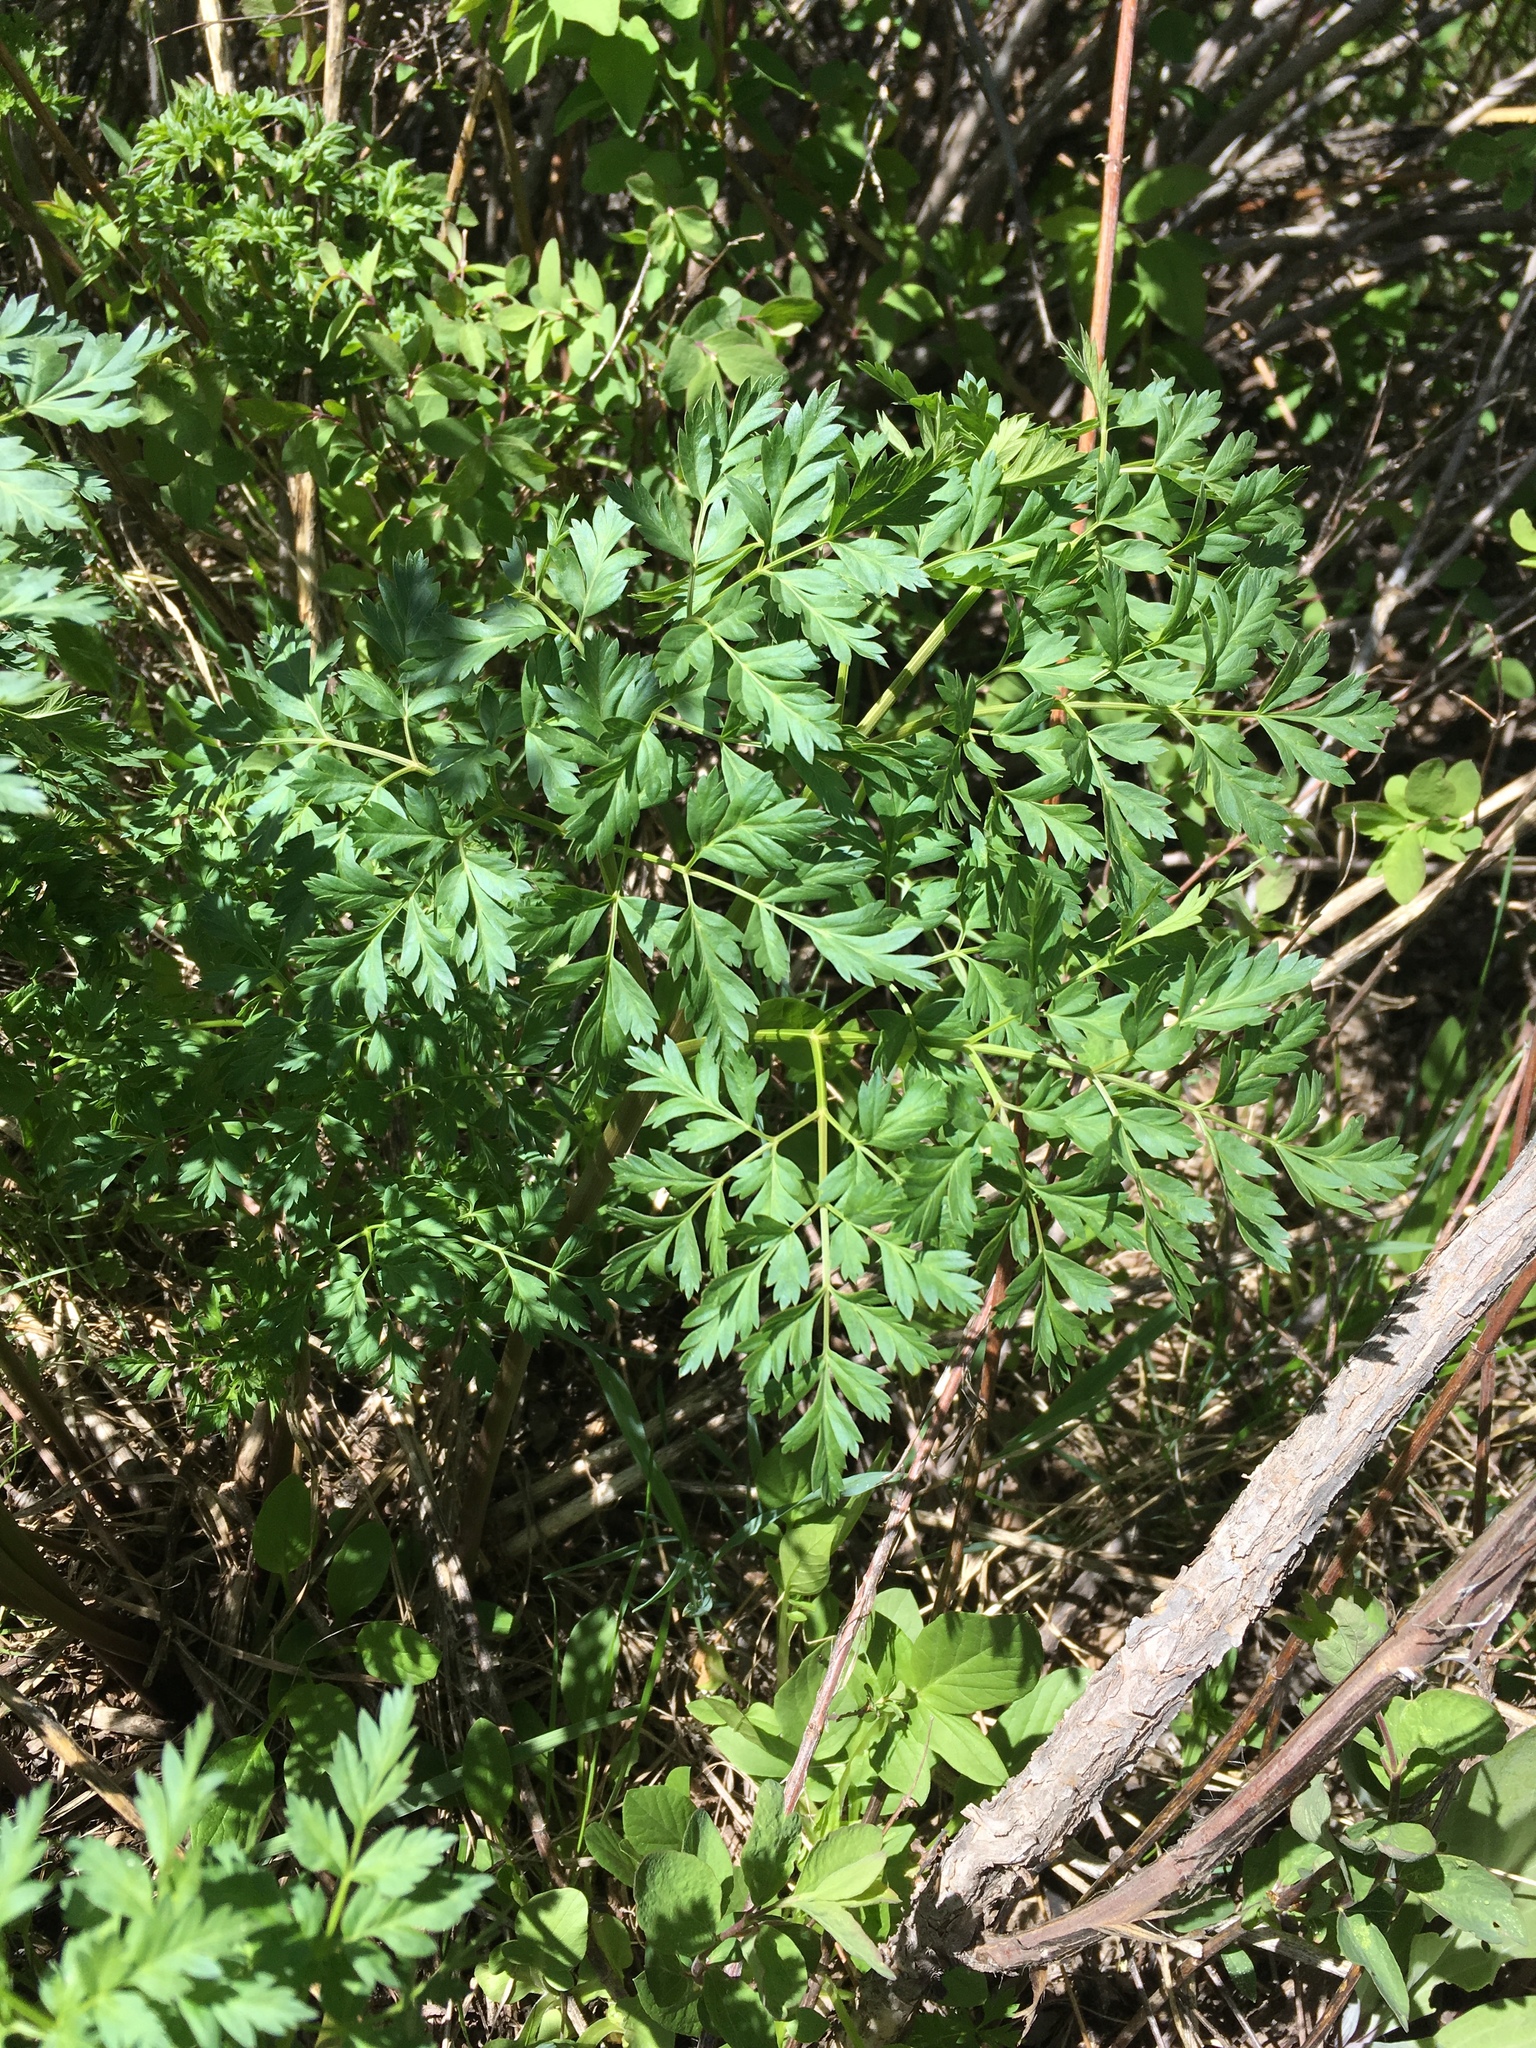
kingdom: Plantae
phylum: Tracheophyta
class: Magnoliopsida
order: Apiales
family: Apiaceae
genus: Ligusticum
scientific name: Ligusticum porteri
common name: Mountain lovage
